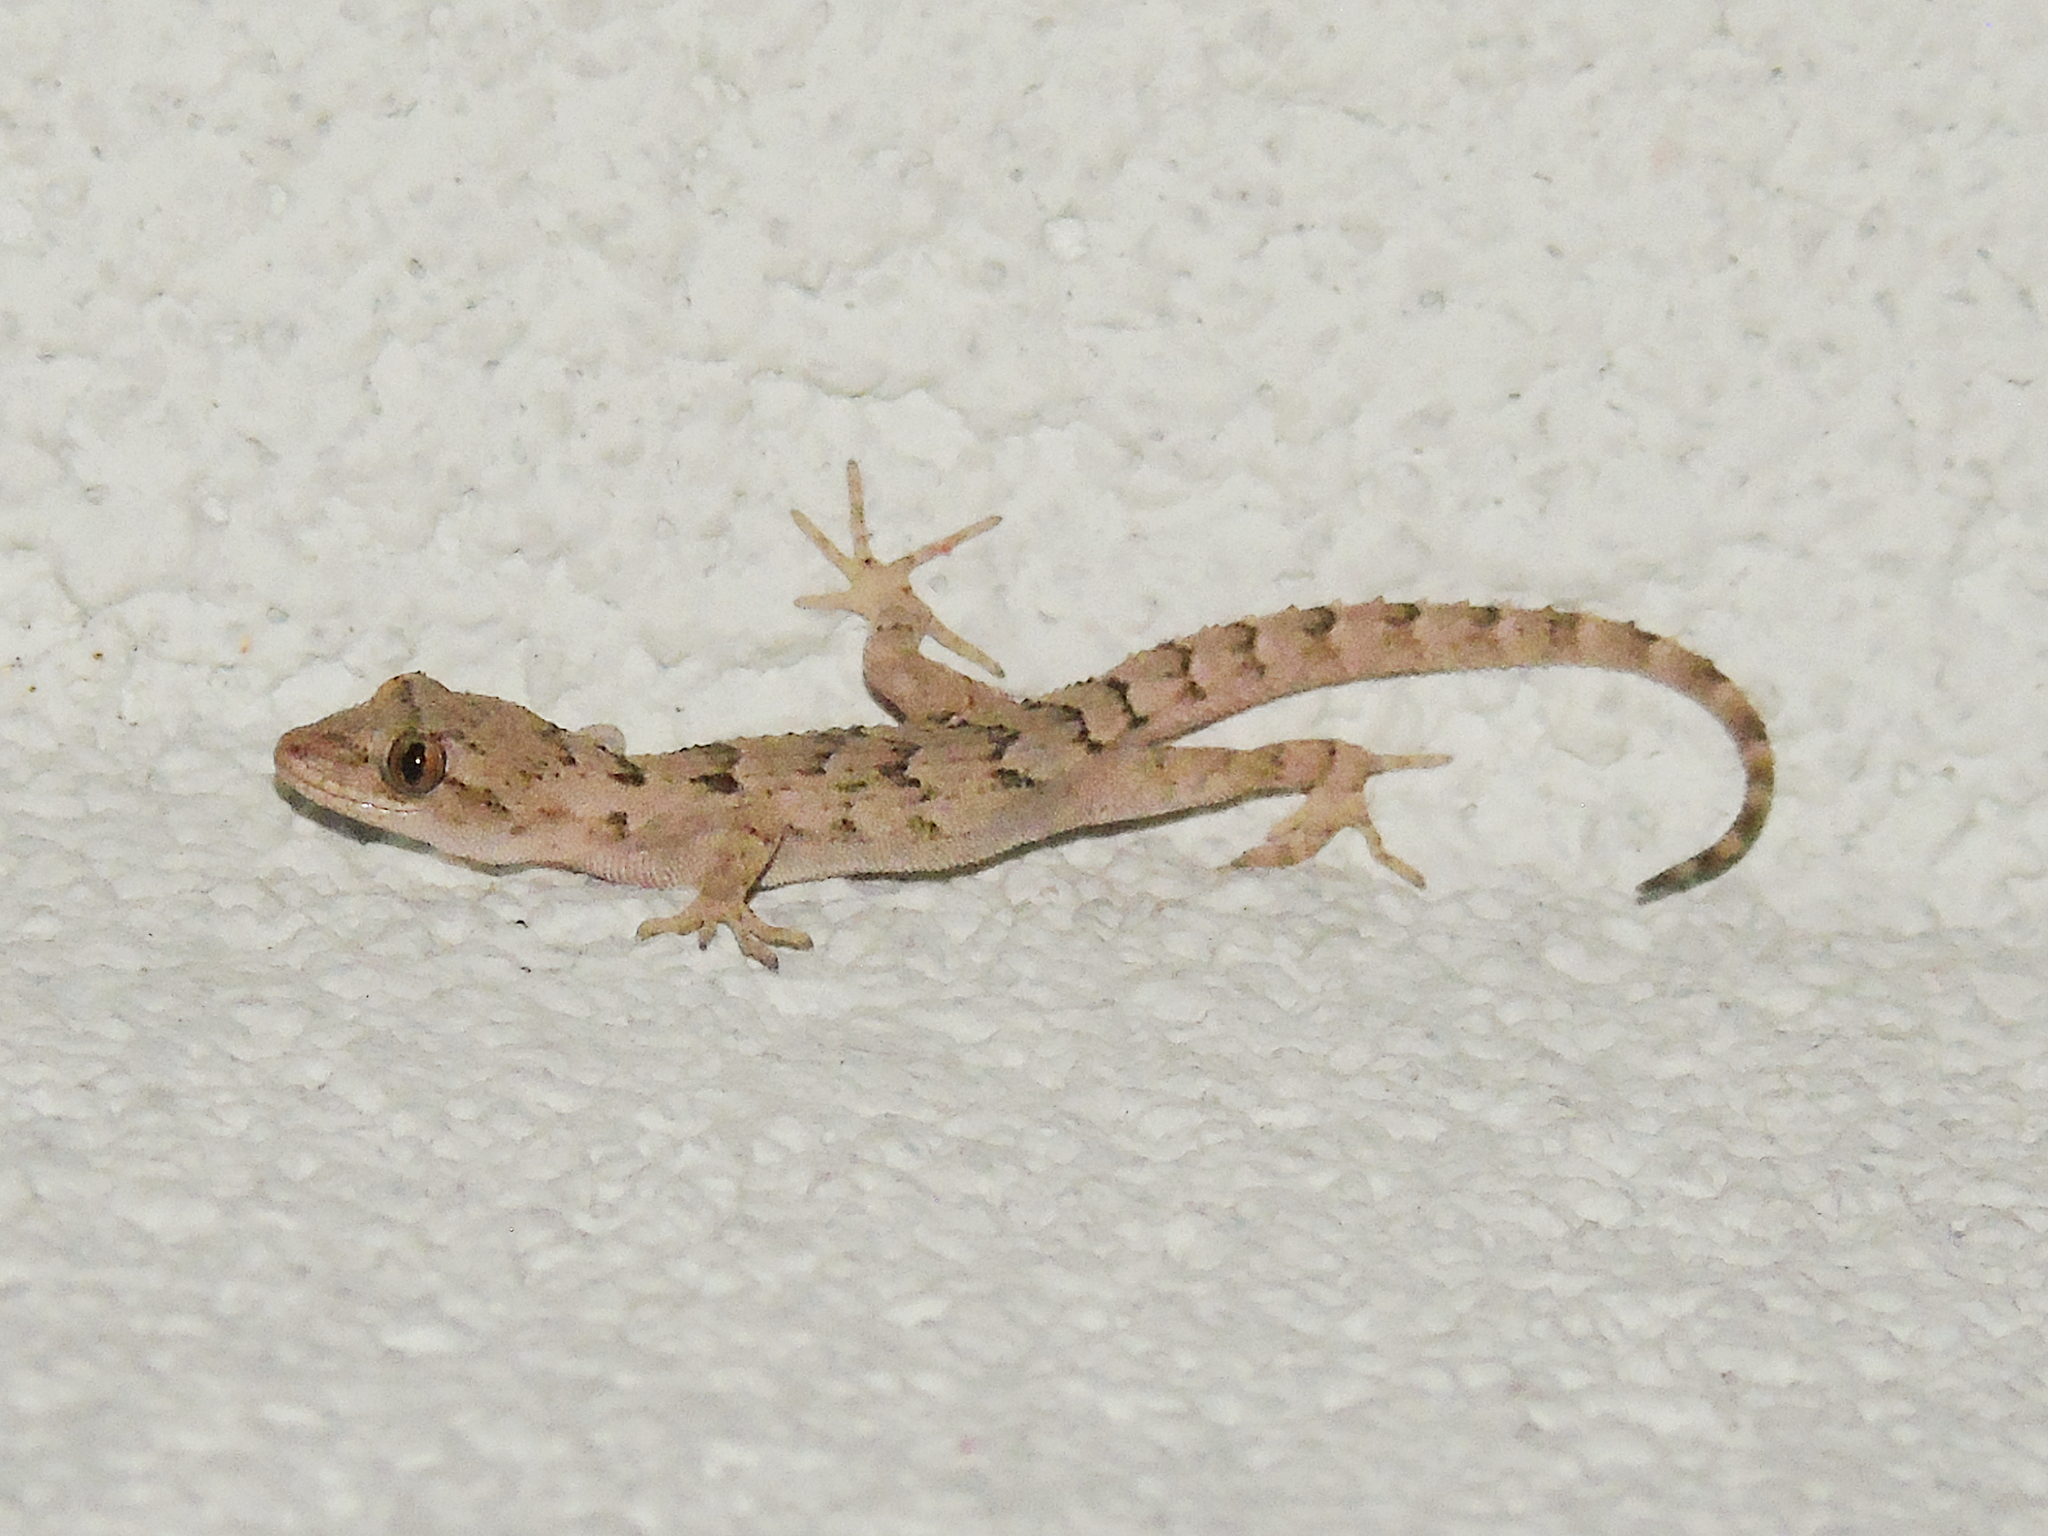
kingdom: Animalia
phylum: Chordata
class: Squamata
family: Gekkonidae
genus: Mediodactylus
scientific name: Mediodactylus danilewskii
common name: Bulgarian bent-toed gecko
